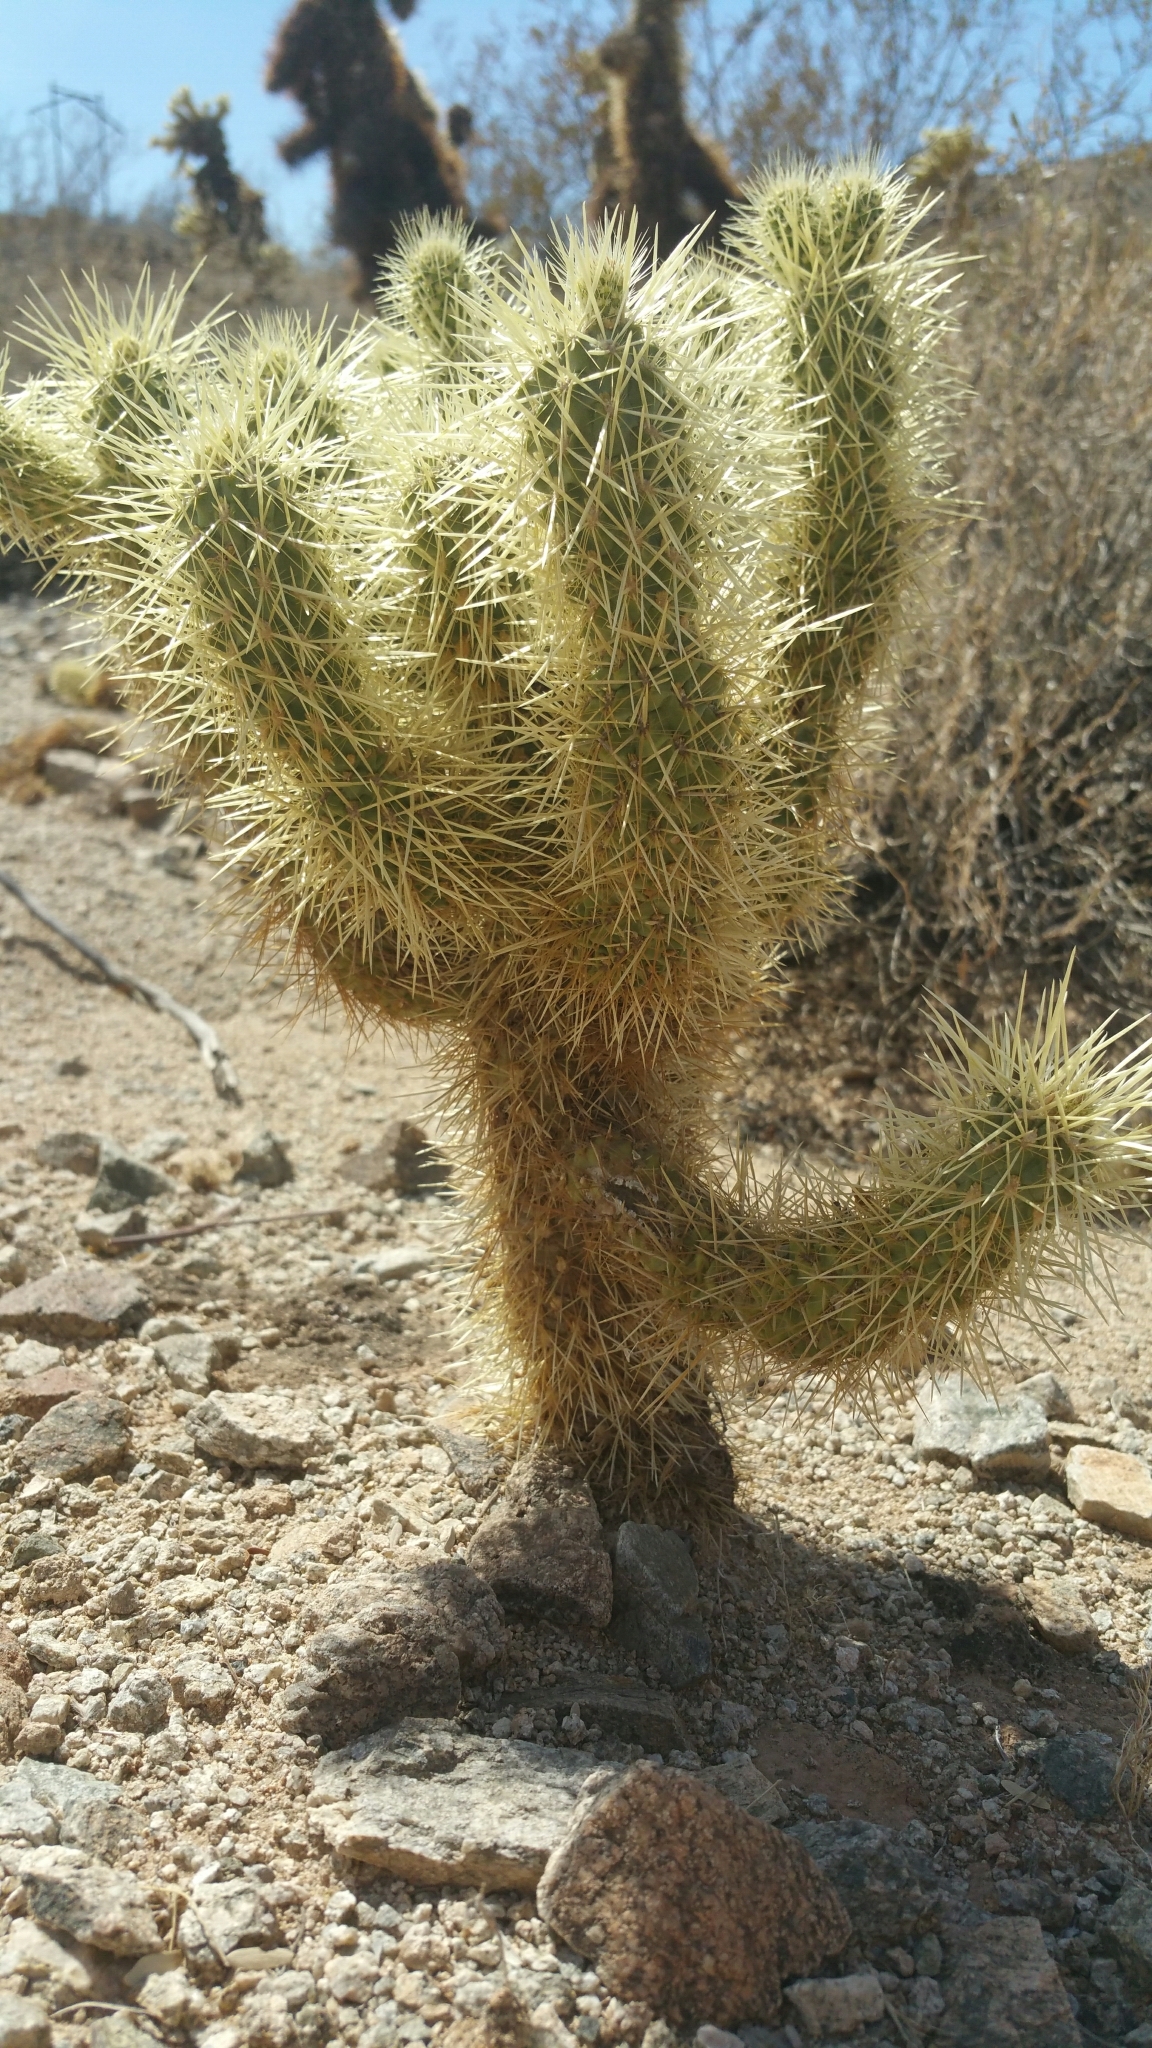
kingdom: Plantae
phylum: Tracheophyta
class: Magnoliopsida
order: Caryophyllales
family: Cactaceae
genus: Cylindropuntia
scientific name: Cylindropuntia fosbergii
